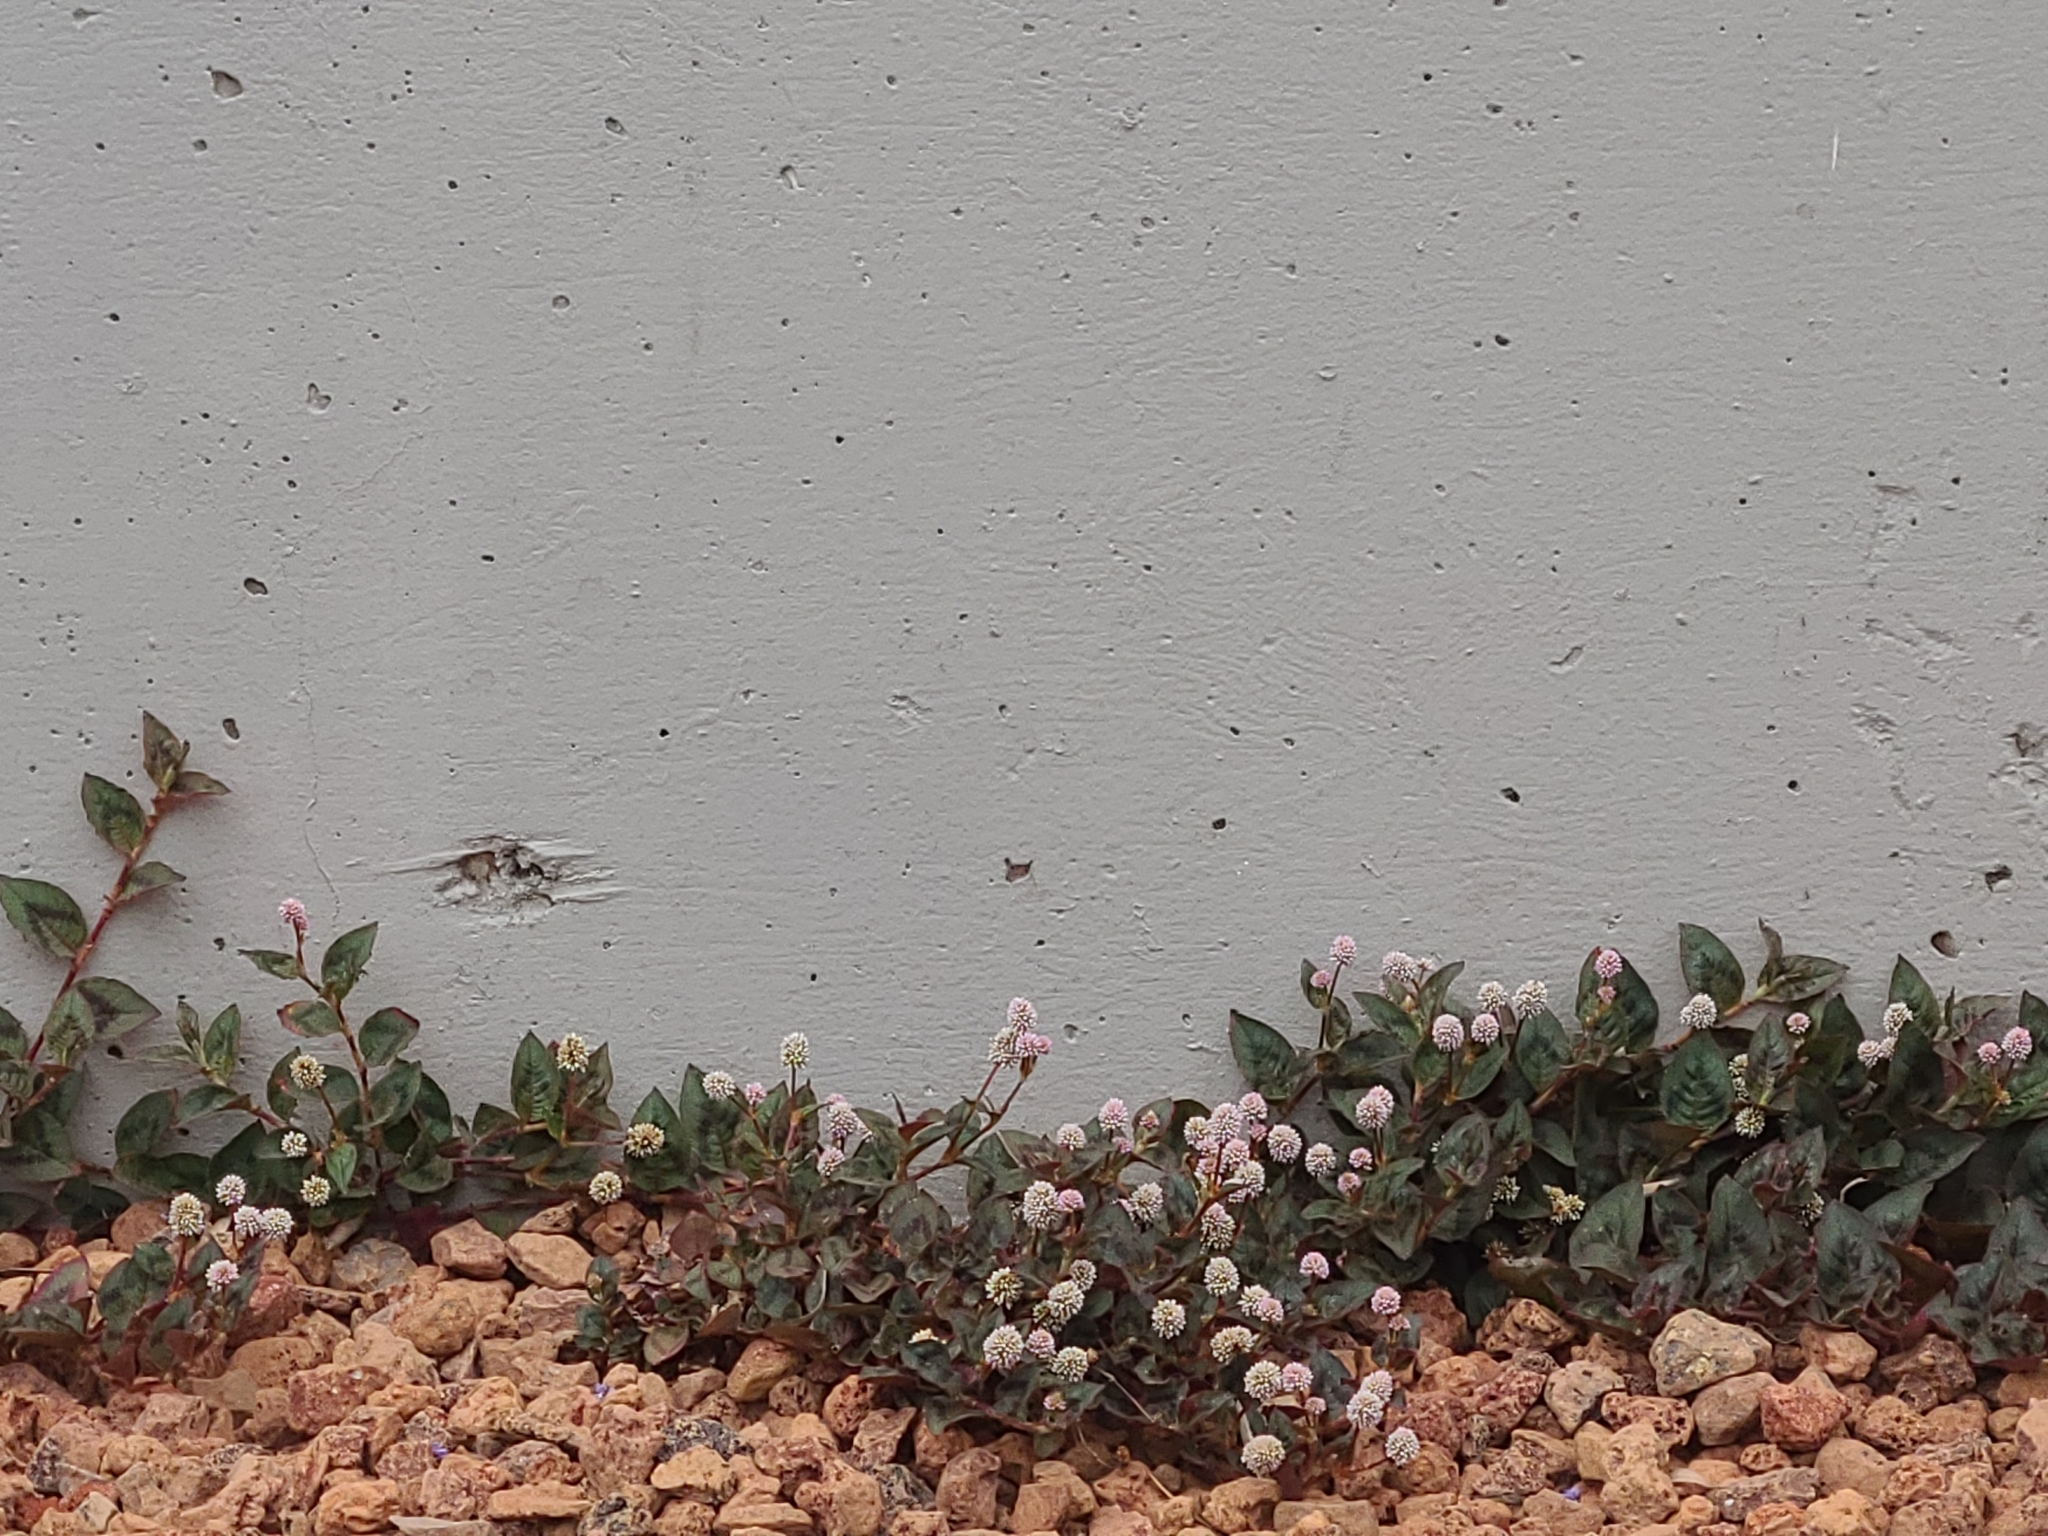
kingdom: Plantae
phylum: Tracheophyta
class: Magnoliopsida
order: Caryophyllales
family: Polygonaceae
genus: Persicaria
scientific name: Persicaria capitata
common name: Pinkhead smartweed
